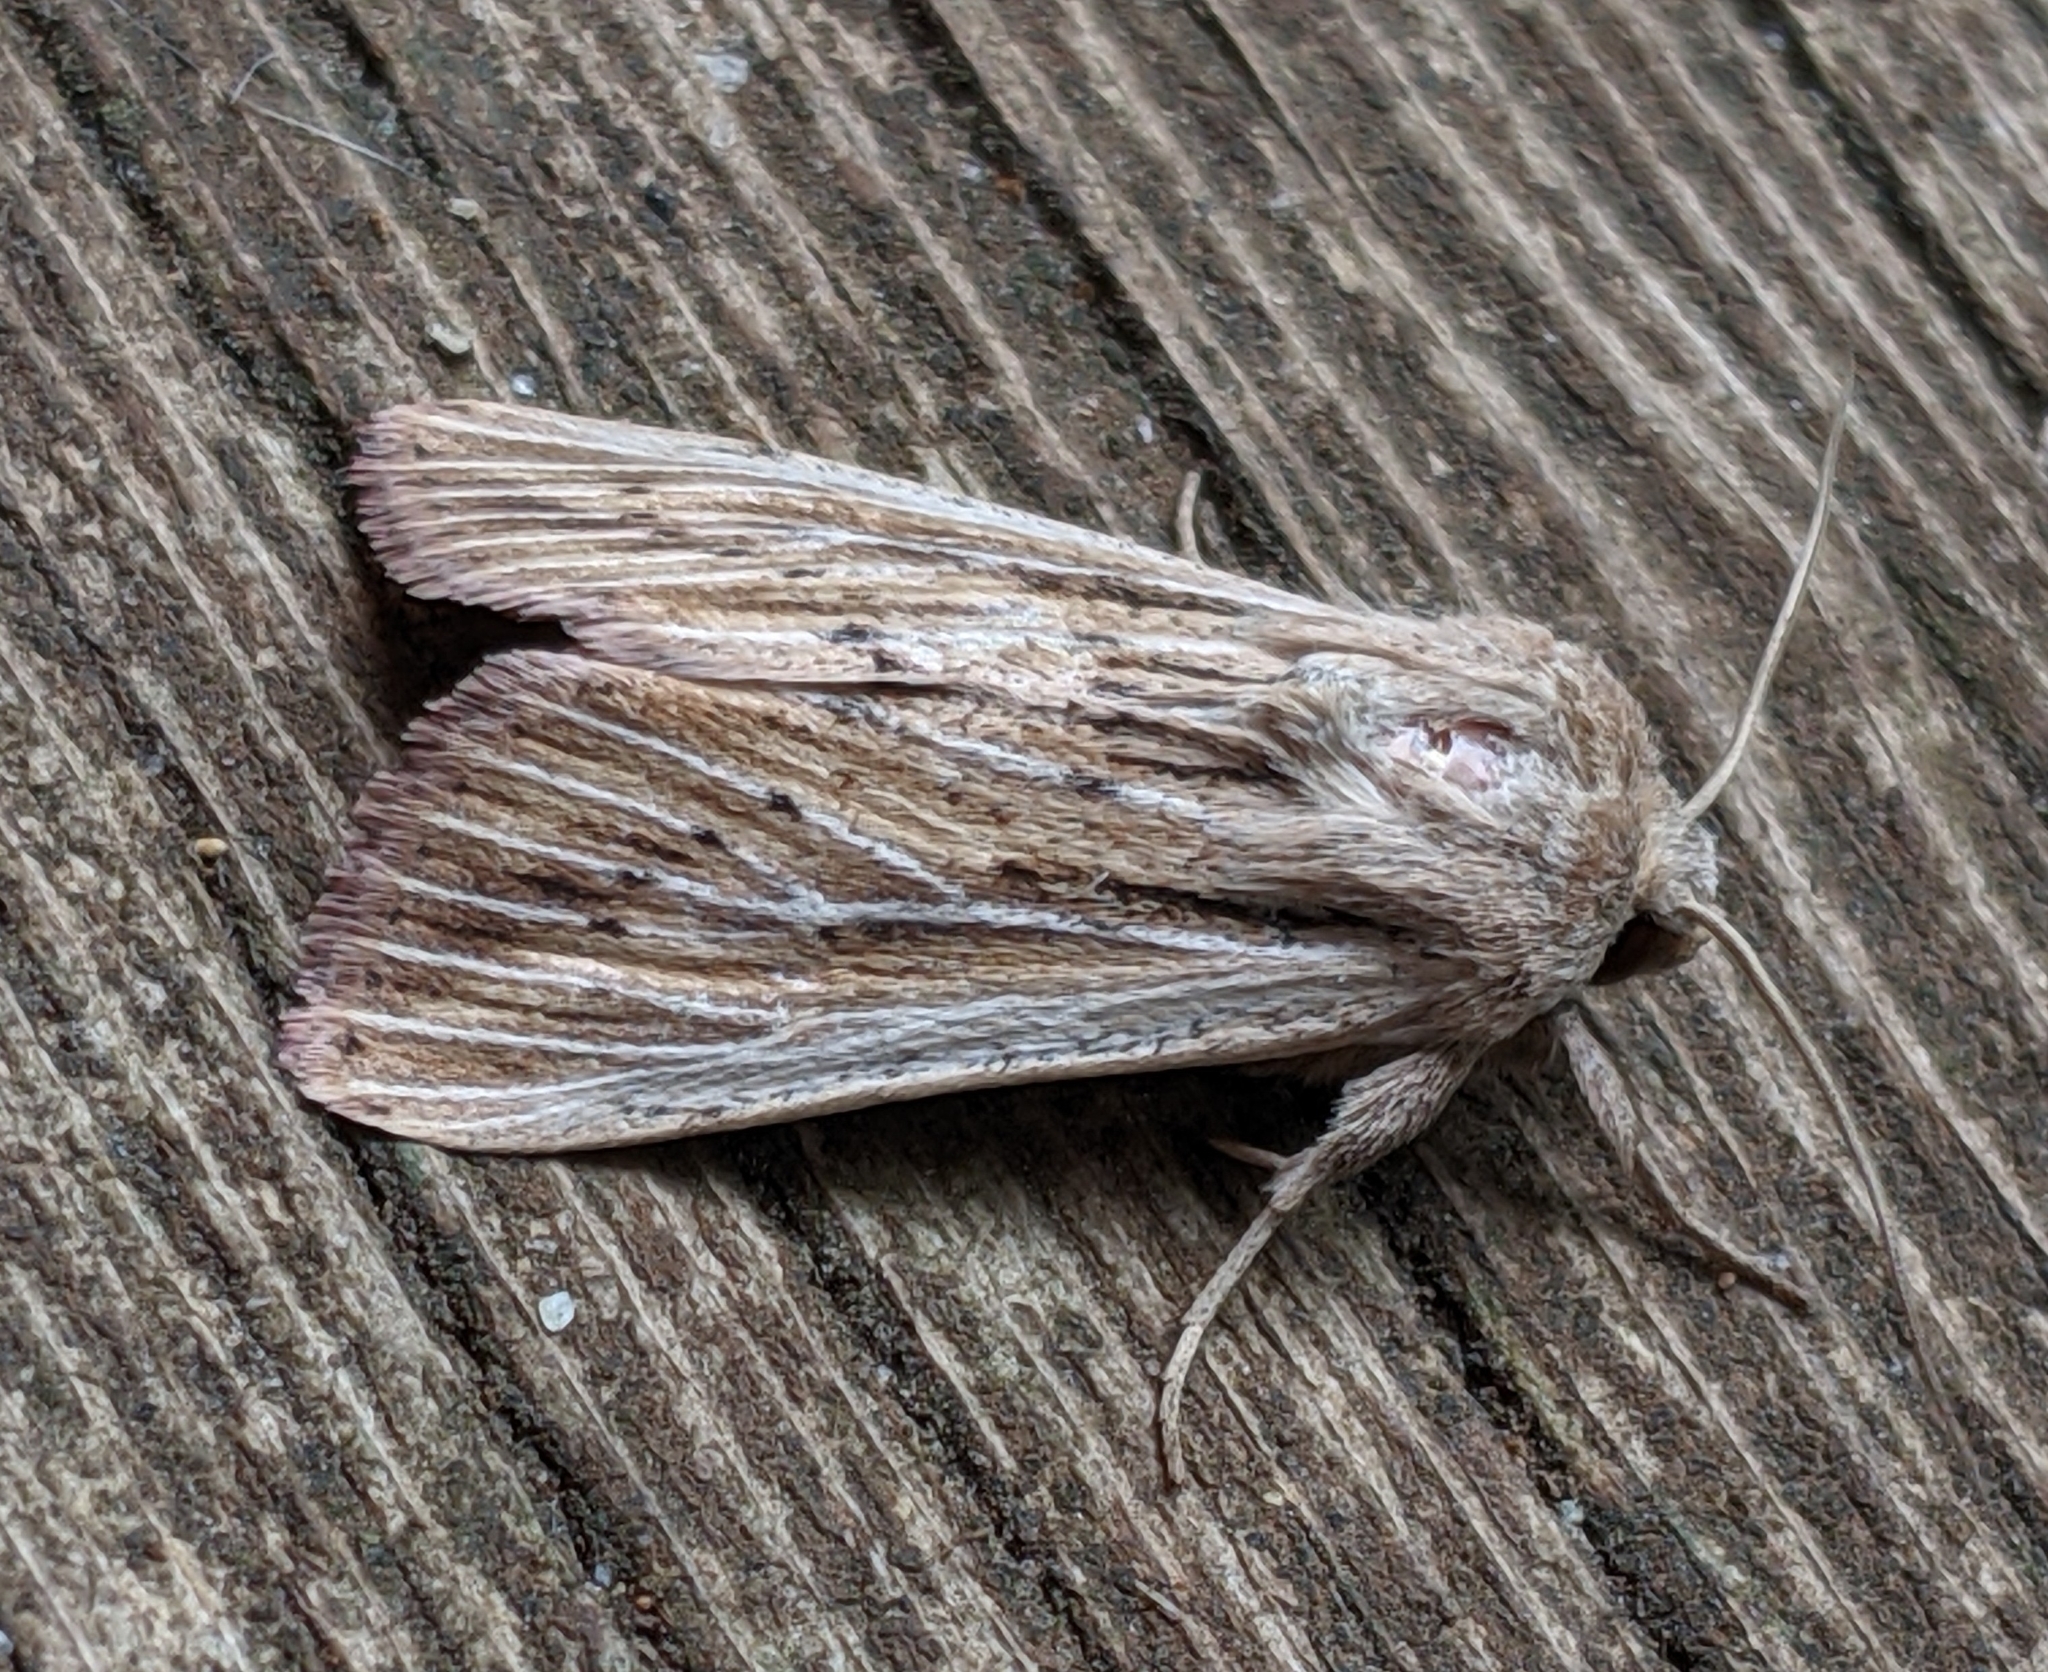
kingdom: Animalia
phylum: Arthropoda
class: Insecta
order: Lepidoptera
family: Noctuidae
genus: Leucania
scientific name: Leucania insueta
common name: Heterodox wainscot moth
